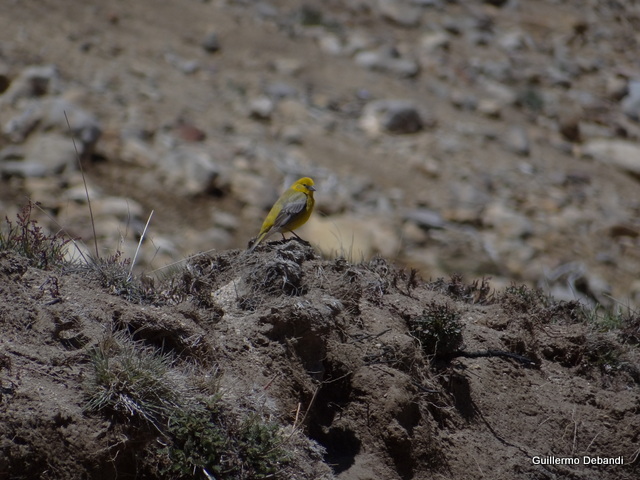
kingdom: Animalia
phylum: Chordata
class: Aves
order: Passeriformes
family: Thraupidae
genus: Sicalis
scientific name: Sicalis auriventris
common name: Greater yellow finch
